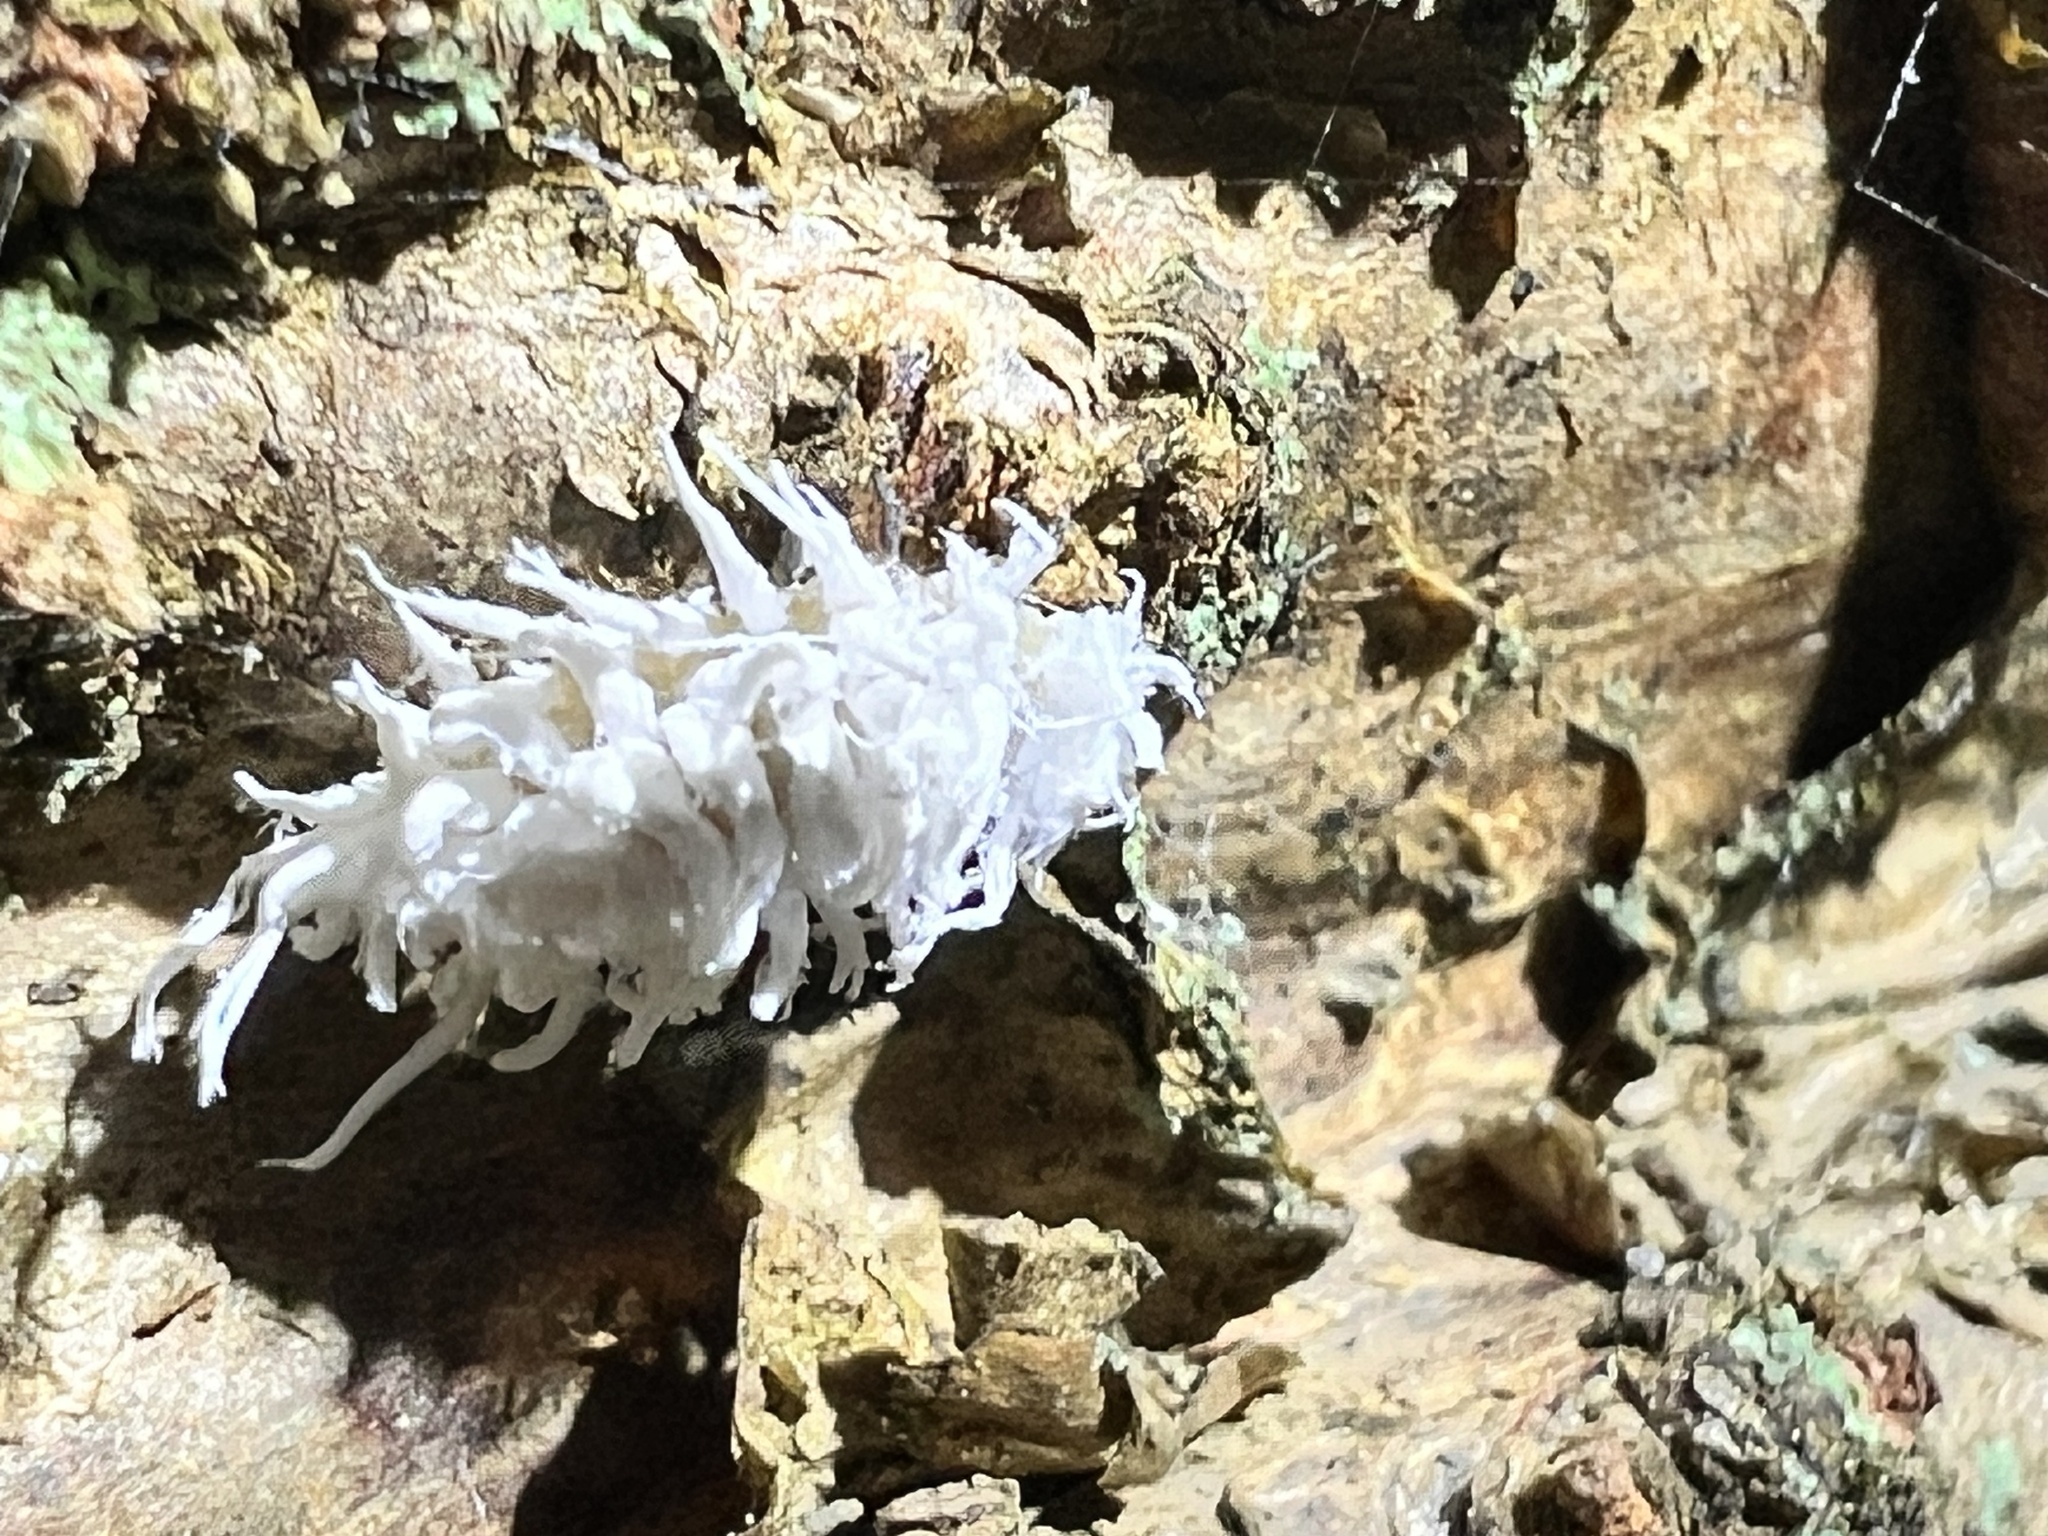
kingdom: Animalia
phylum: Arthropoda
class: Insecta
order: Coleoptera
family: Coccinellidae
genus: Cryptolaemus
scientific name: Cryptolaemus montrouzieri
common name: Mealybug destroyer
